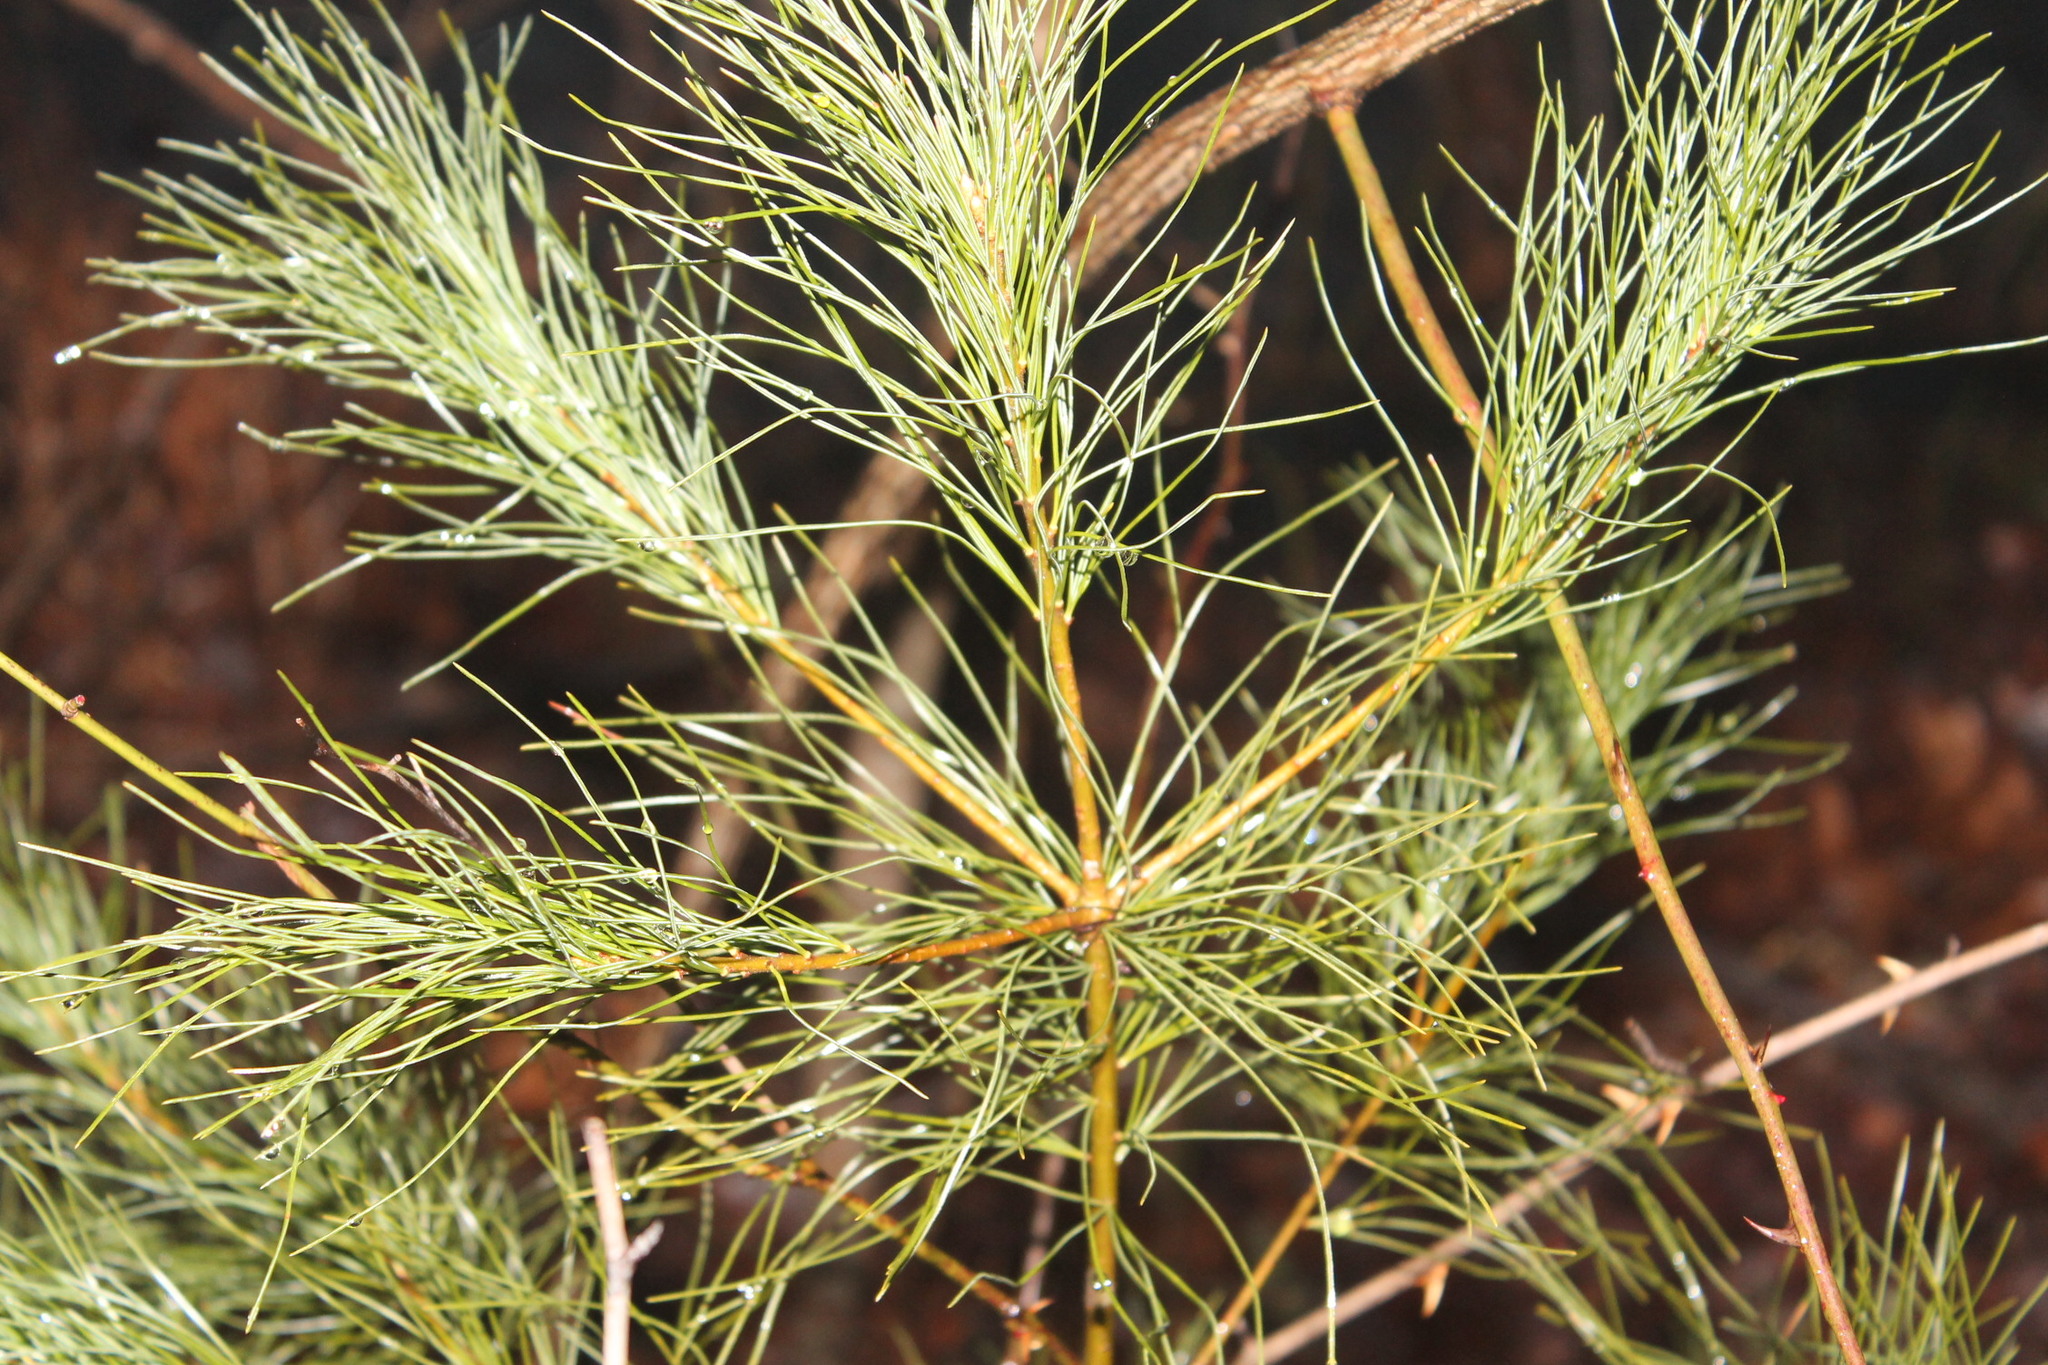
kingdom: Plantae
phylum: Tracheophyta
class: Pinopsida
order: Pinales
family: Pinaceae
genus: Pinus
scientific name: Pinus strobus
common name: Weymouth pine
